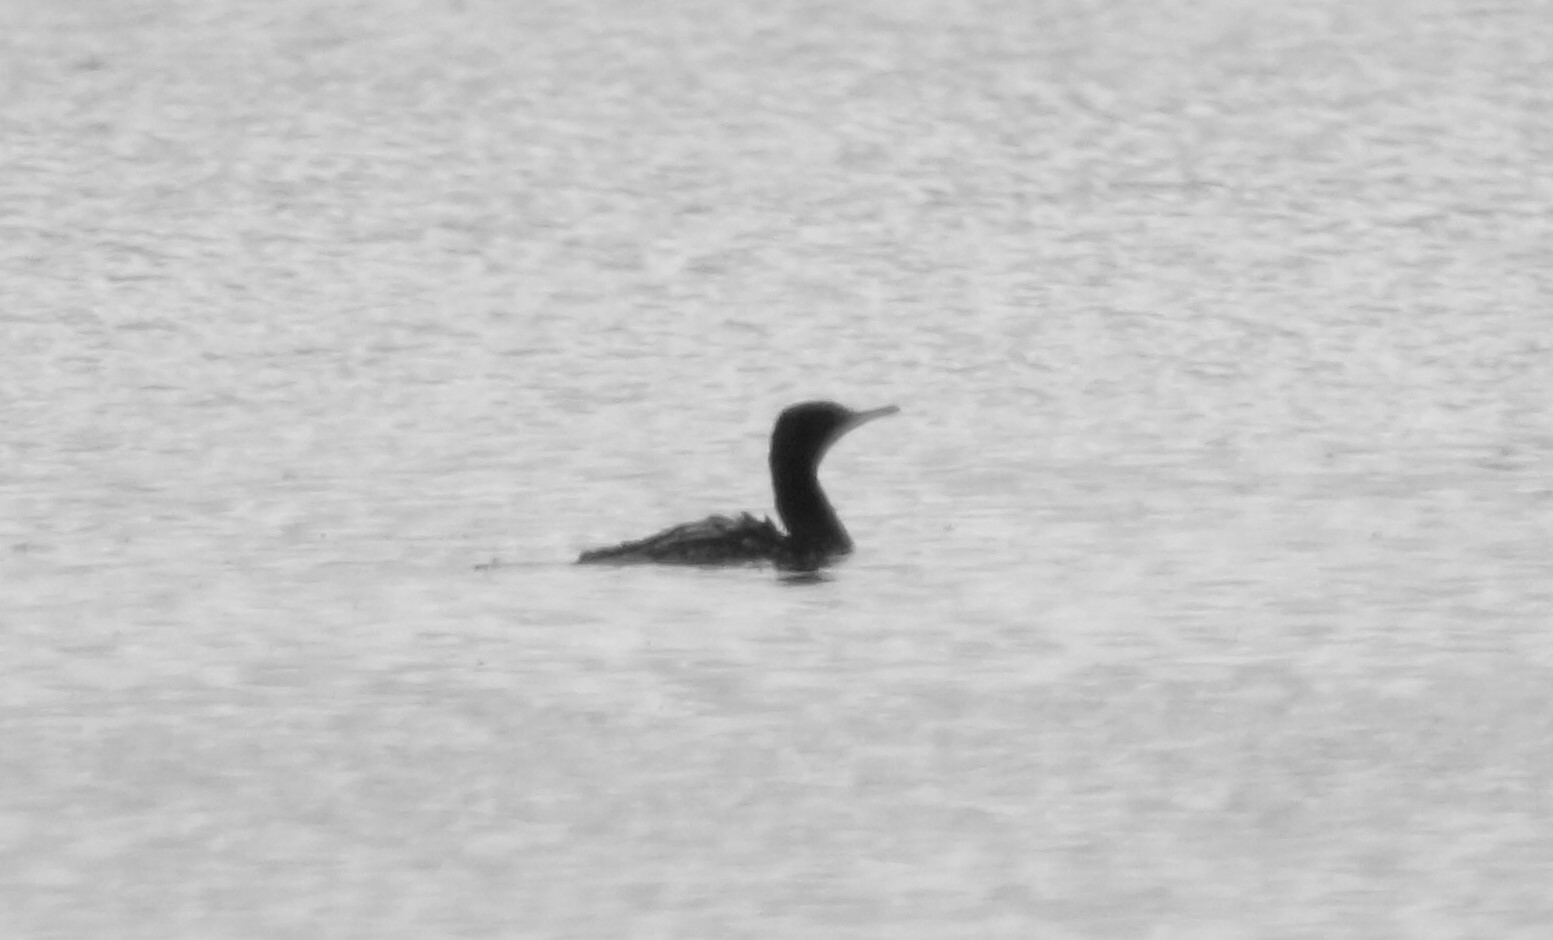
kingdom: Animalia
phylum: Chordata
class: Aves
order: Suliformes
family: Phalacrocoracidae
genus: Phalacrocorax
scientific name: Phalacrocorax sulcirostris
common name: Little black cormorant
